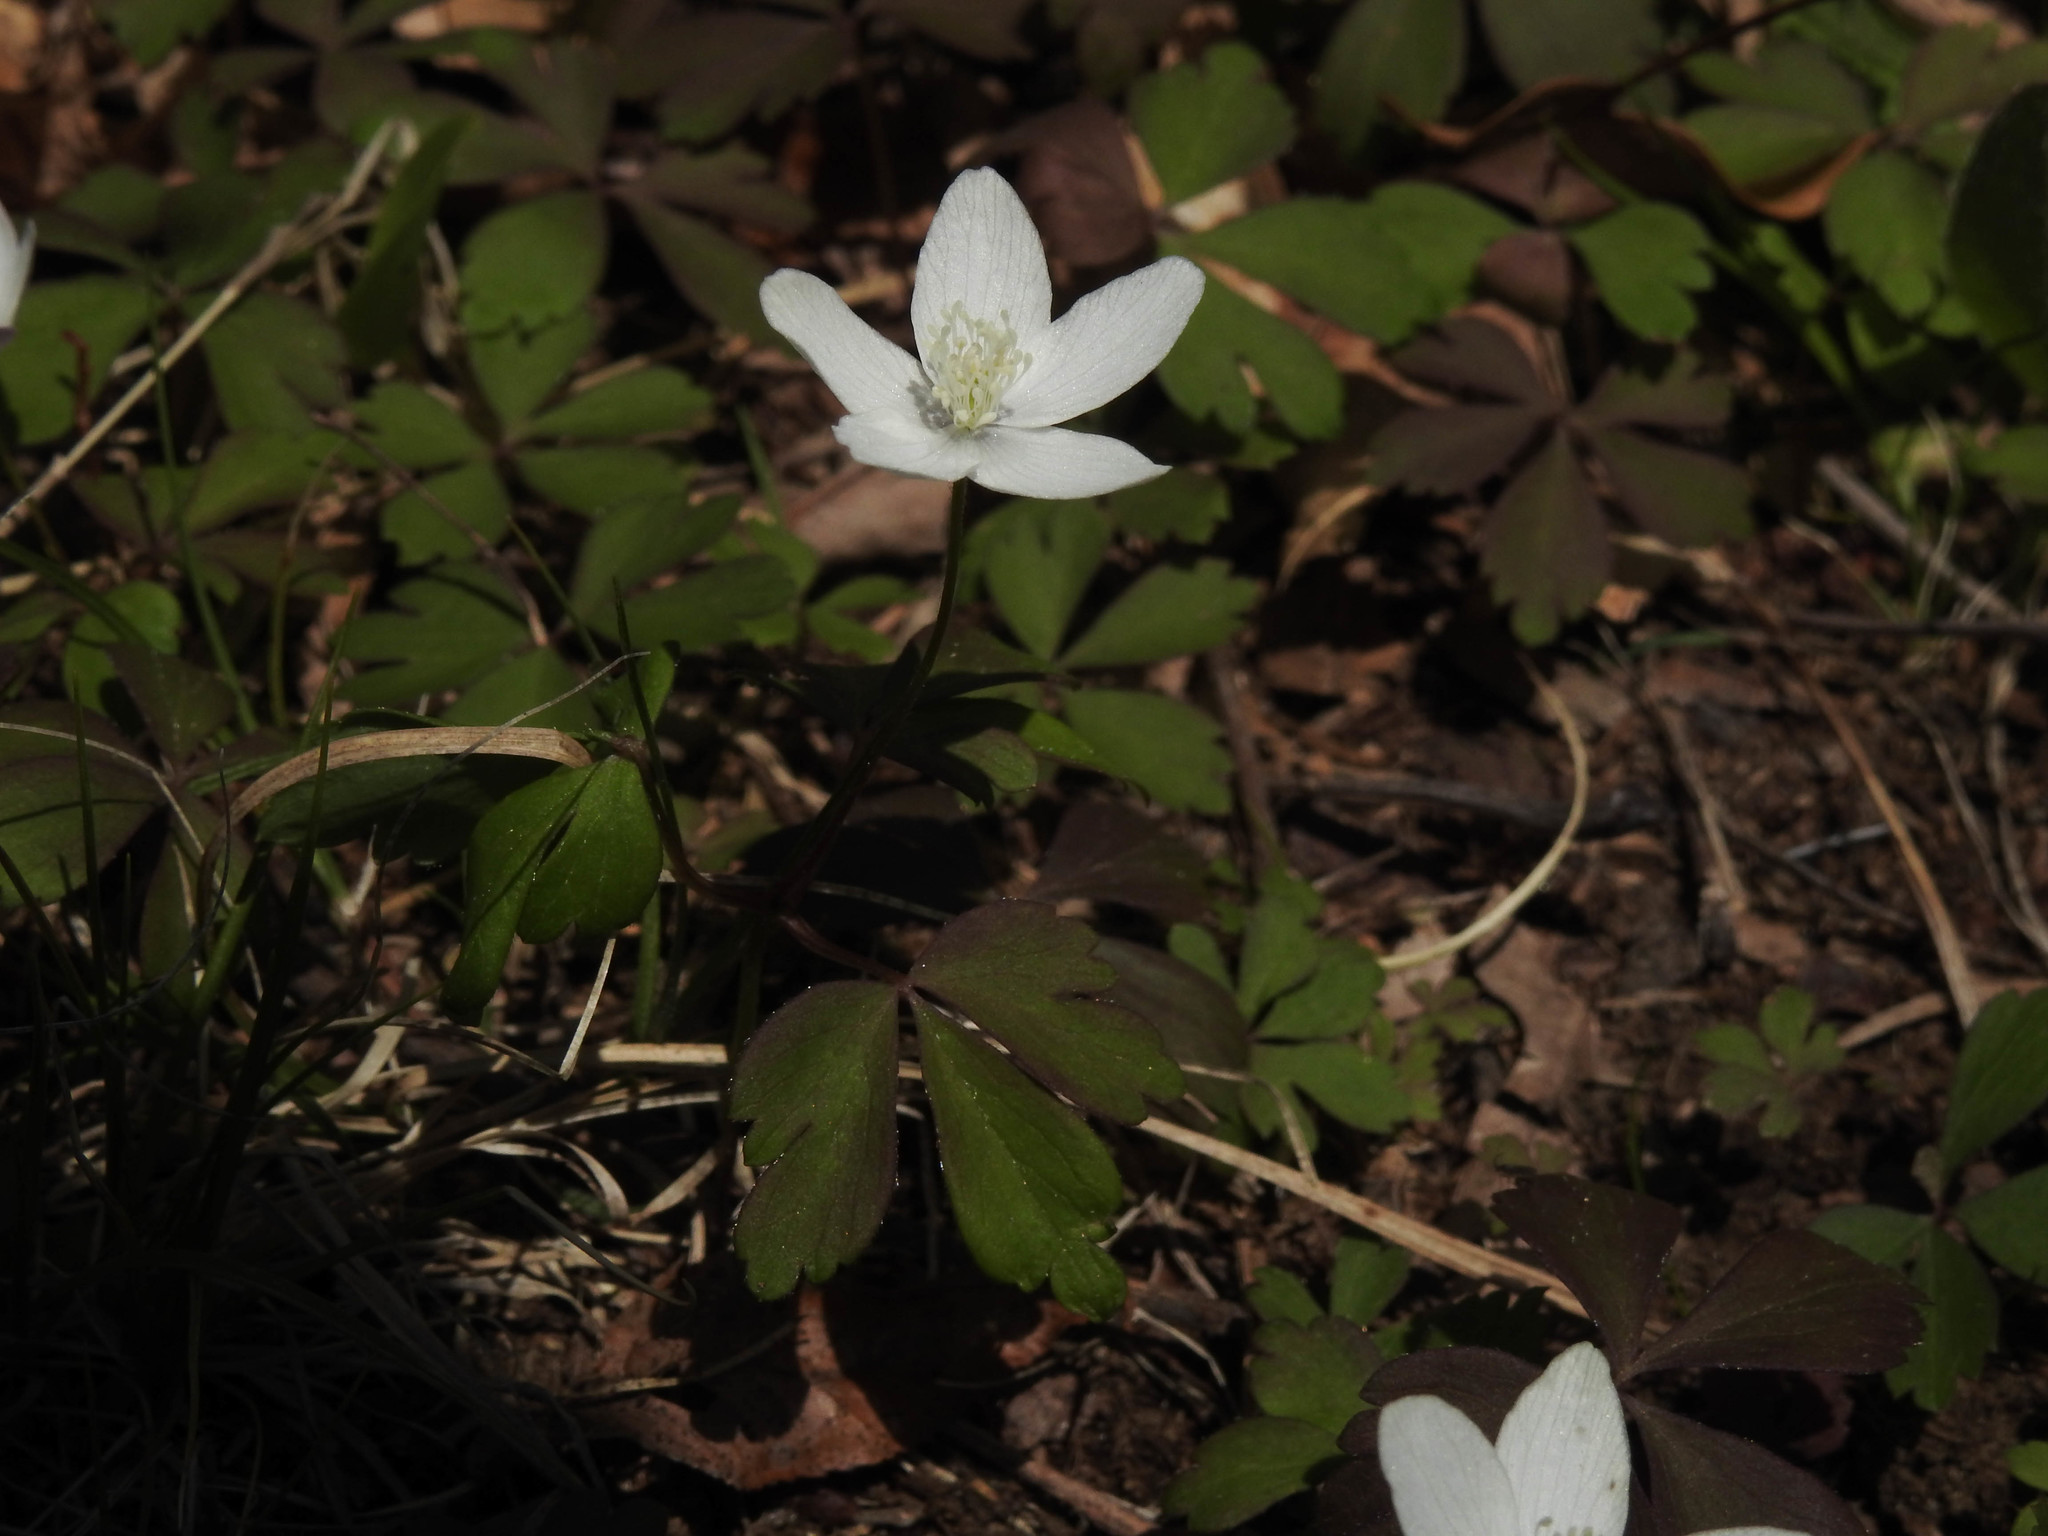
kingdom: Plantae
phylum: Tracheophyta
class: Magnoliopsida
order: Ranunculales
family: Ranunculaceae
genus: Anemone
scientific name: Anemone quinquefolia
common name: Wood anemone
